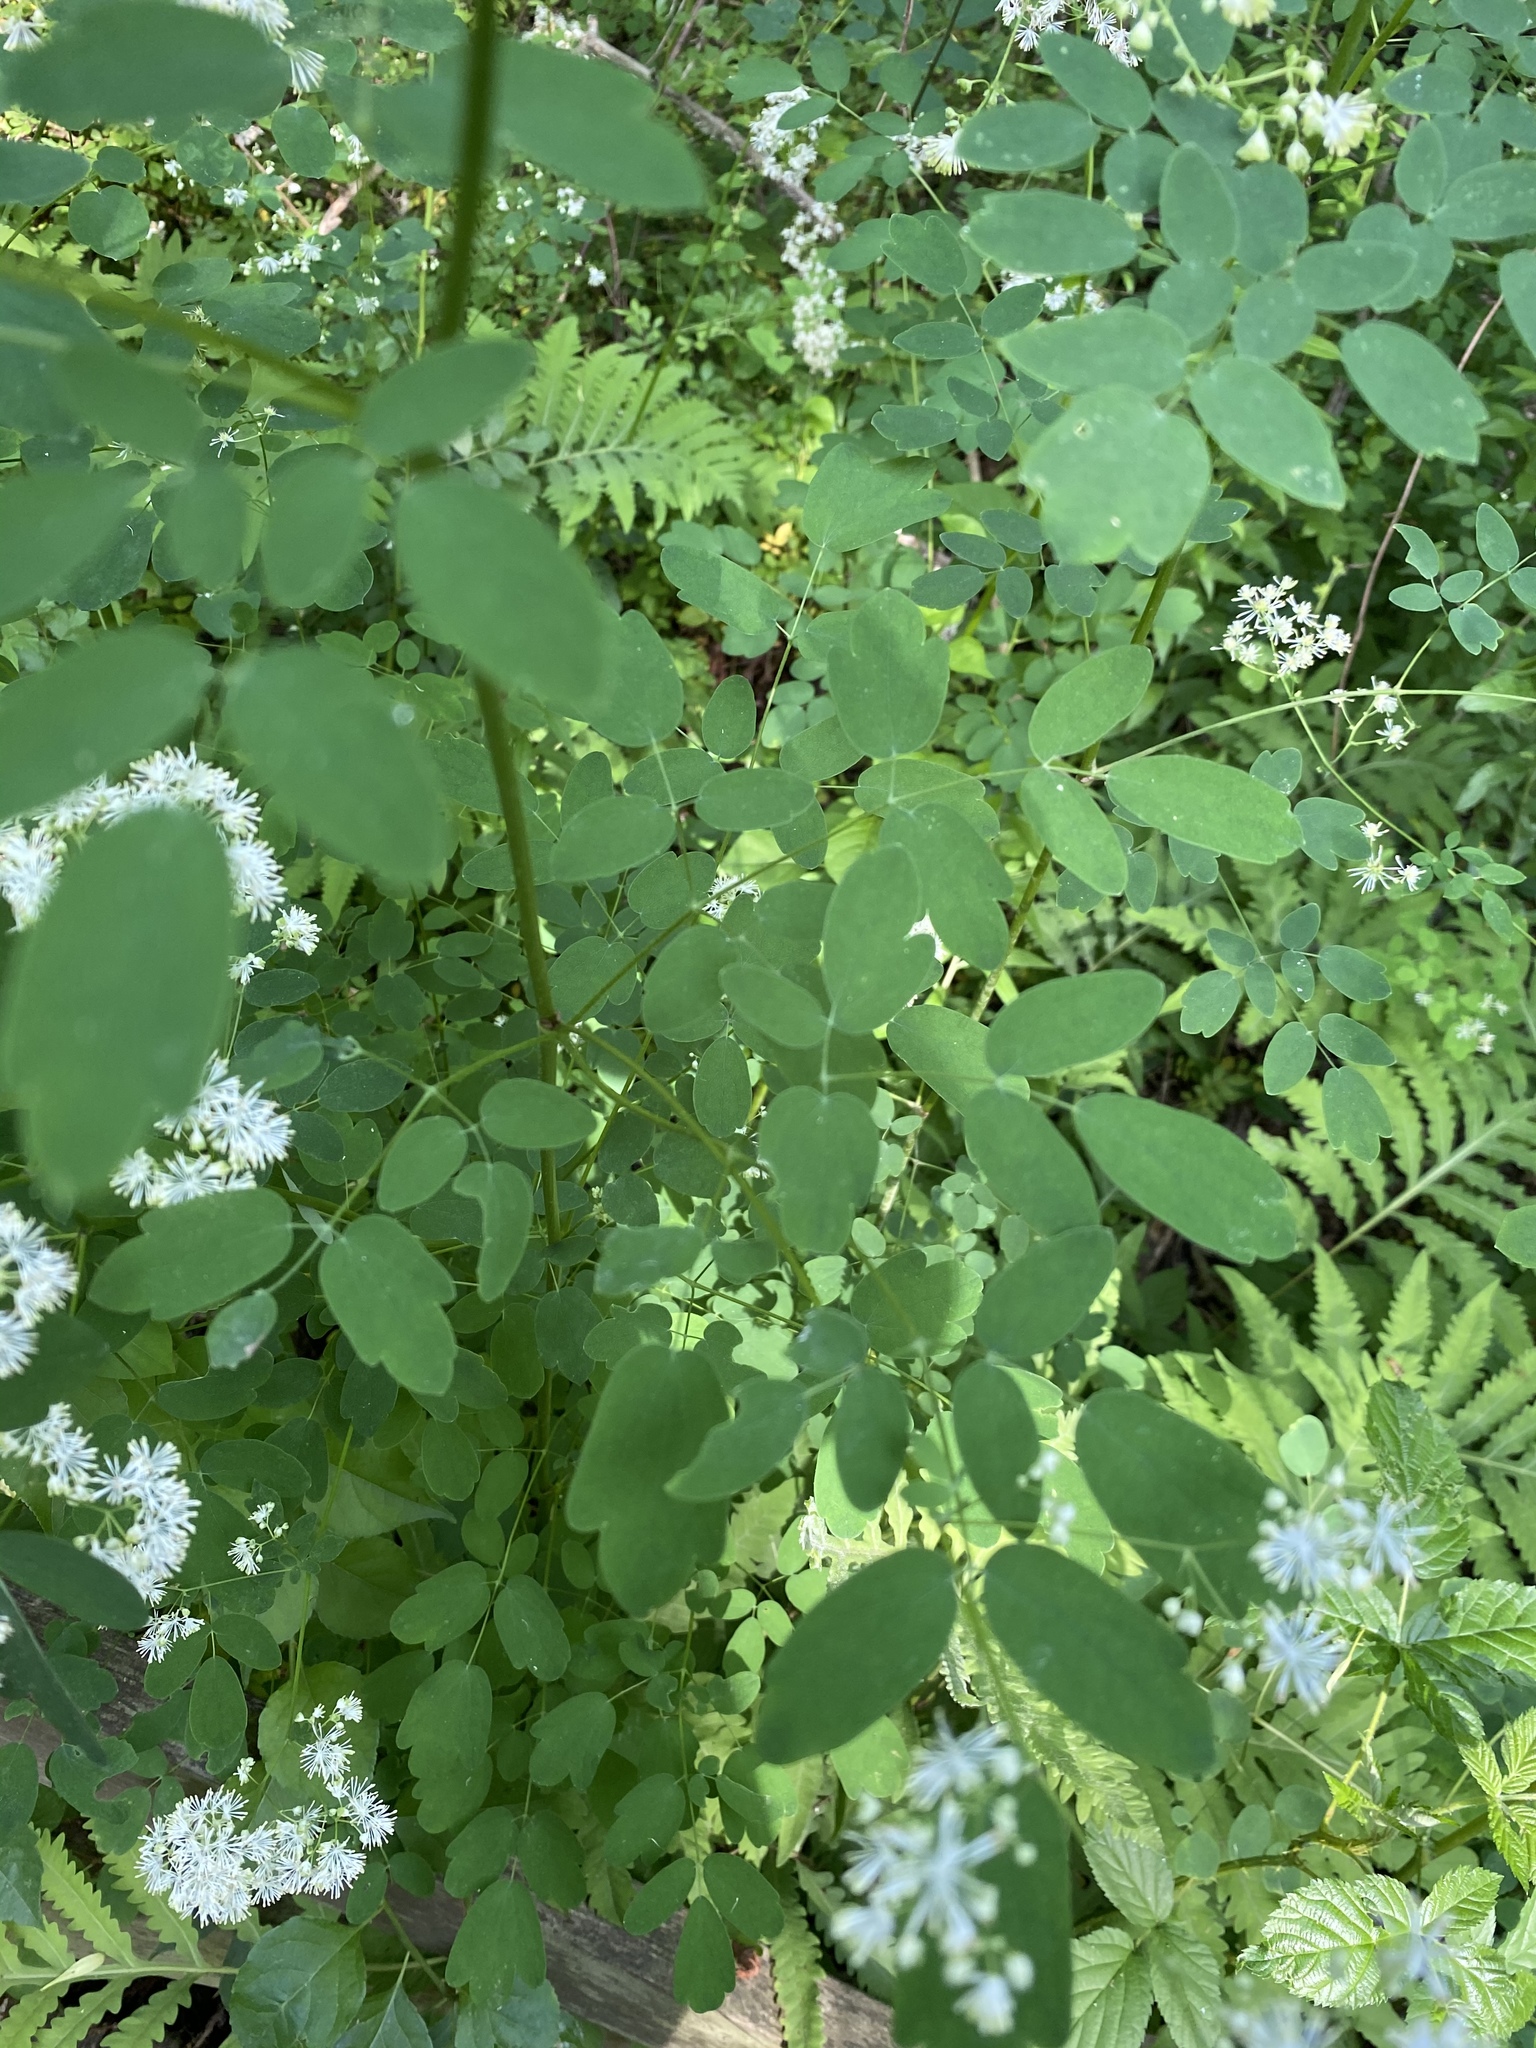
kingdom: Plantae
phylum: Tracheophyta
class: Magnoliopsida
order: Ranunculales
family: Ranunculaceae
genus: Thalictrum
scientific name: Thalictrum pubescens
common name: King-of-the-meadow
